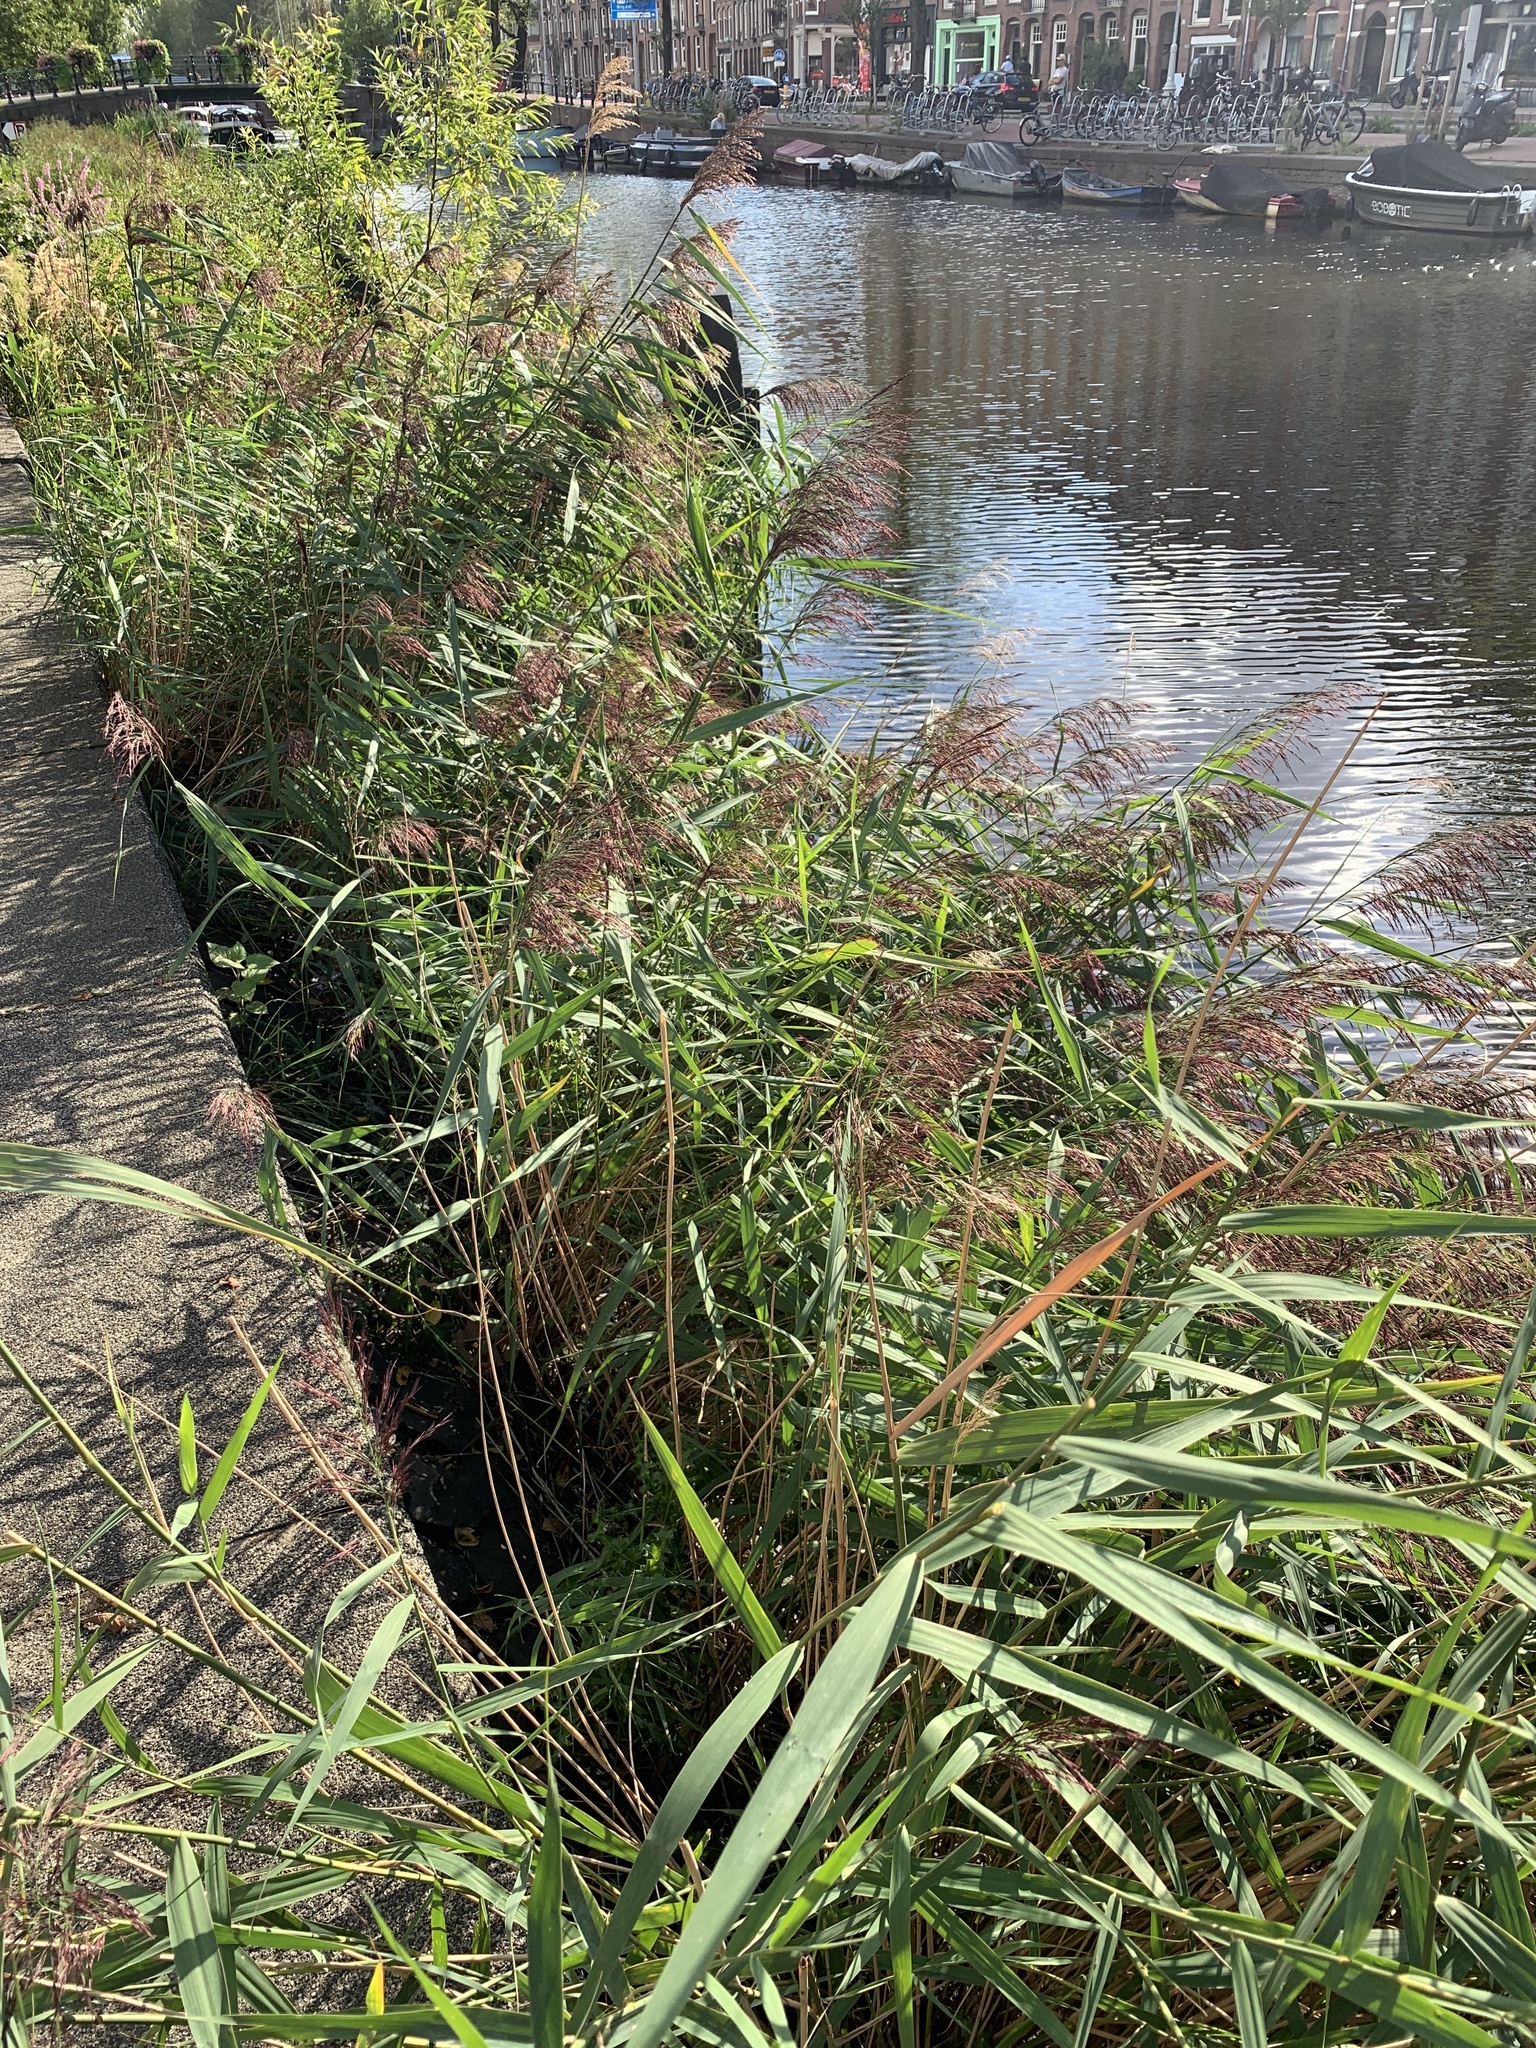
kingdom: Plantae
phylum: Tracheophyta
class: Liliopsida
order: Poales
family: Poaceae
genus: Phragmites
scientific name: Phragmites australis
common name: Common reed
